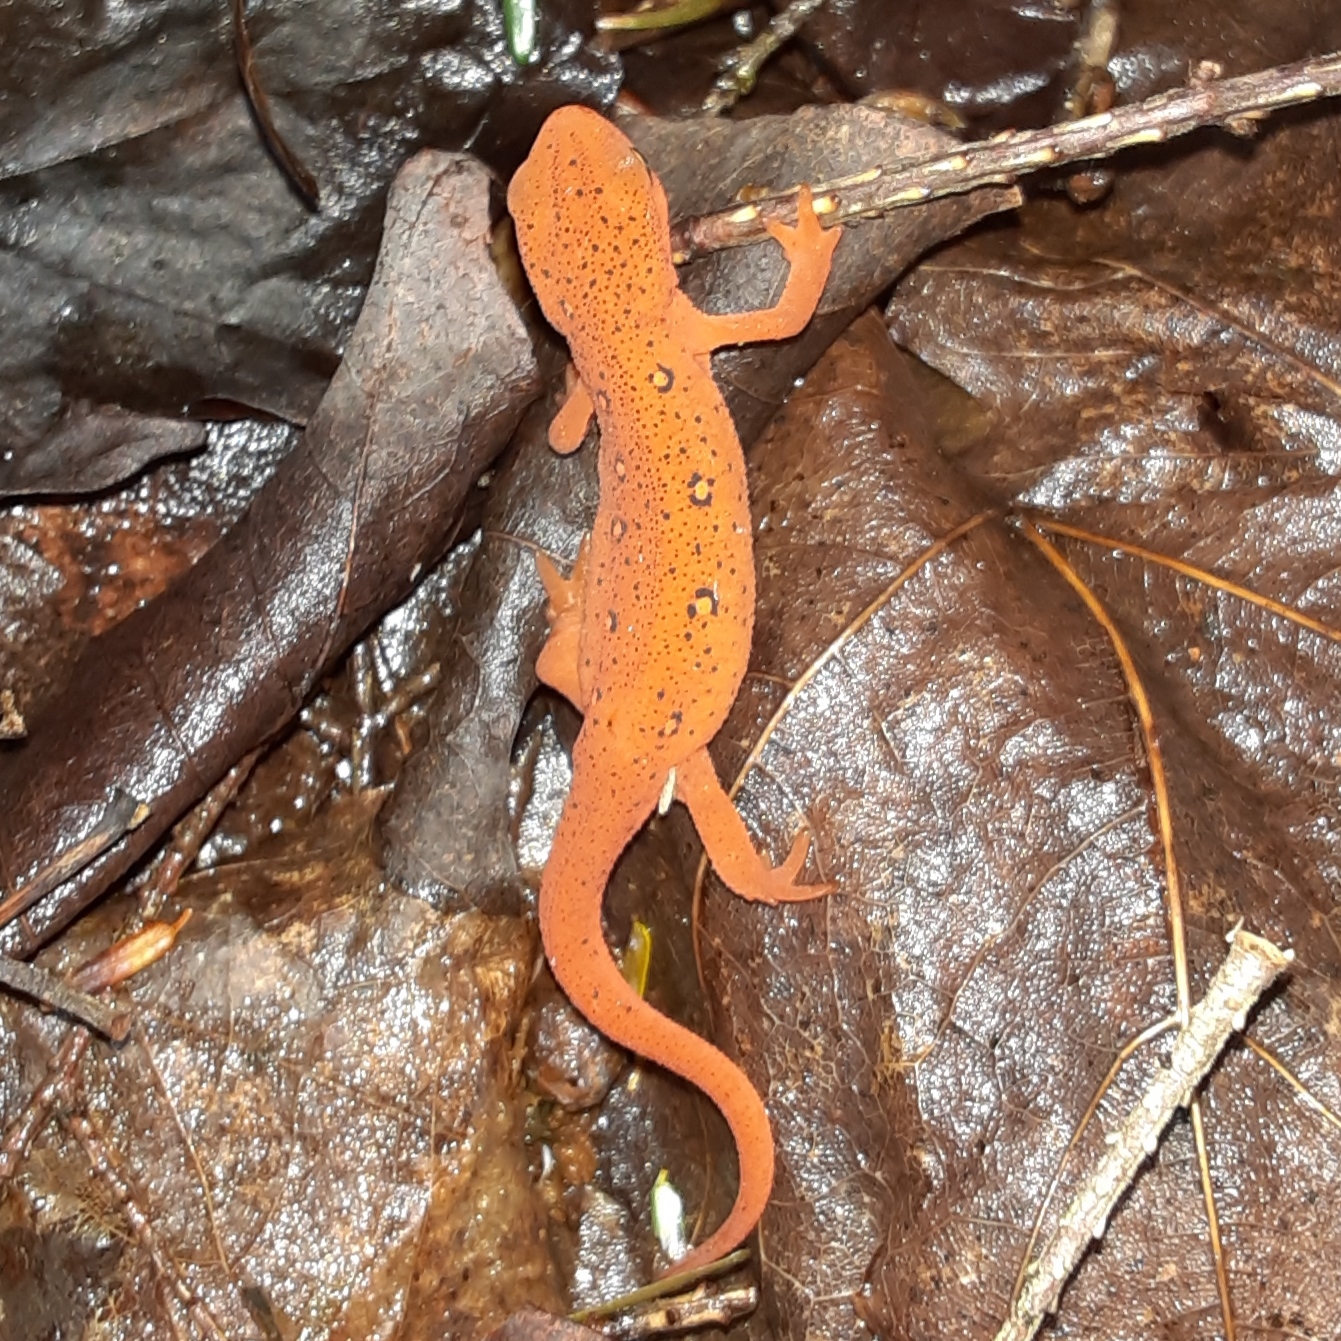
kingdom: Animalia
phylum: Chordata
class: Amphibia
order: Caudata
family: Salamandridae
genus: Notophthalmus
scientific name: Notophthalmus viridescens
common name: Eastern newt
